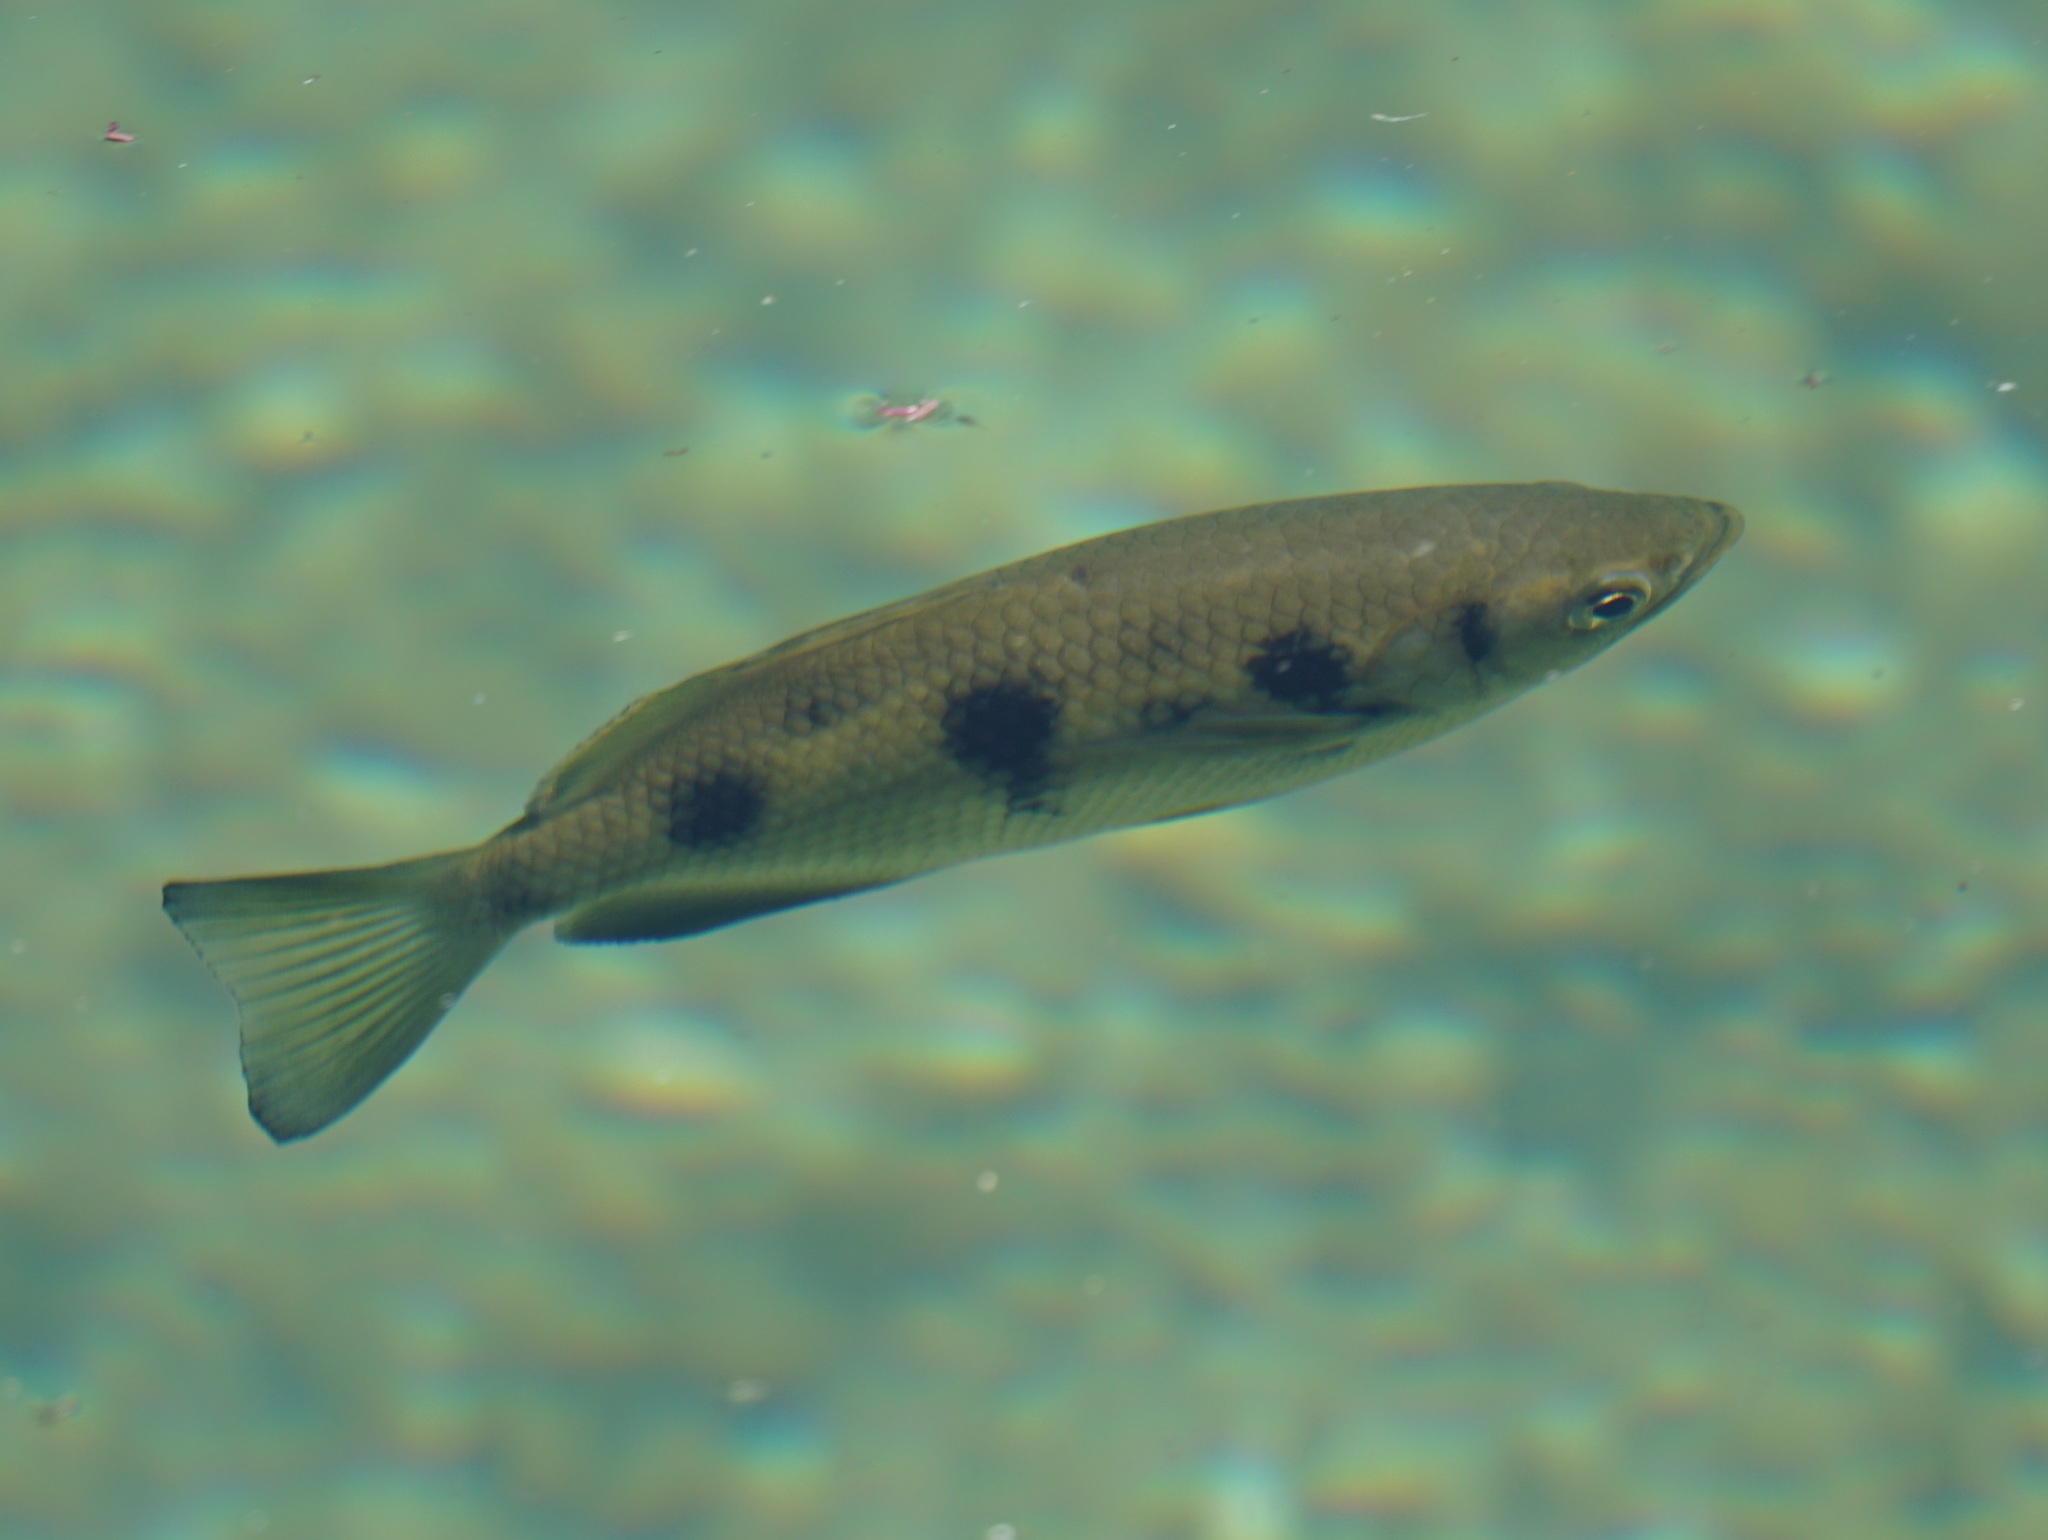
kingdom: Animalia
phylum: Chordata
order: Perciformes
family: Toxotidae
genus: Toxotes
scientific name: Toxotes chatareus
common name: Spotted archerfish
